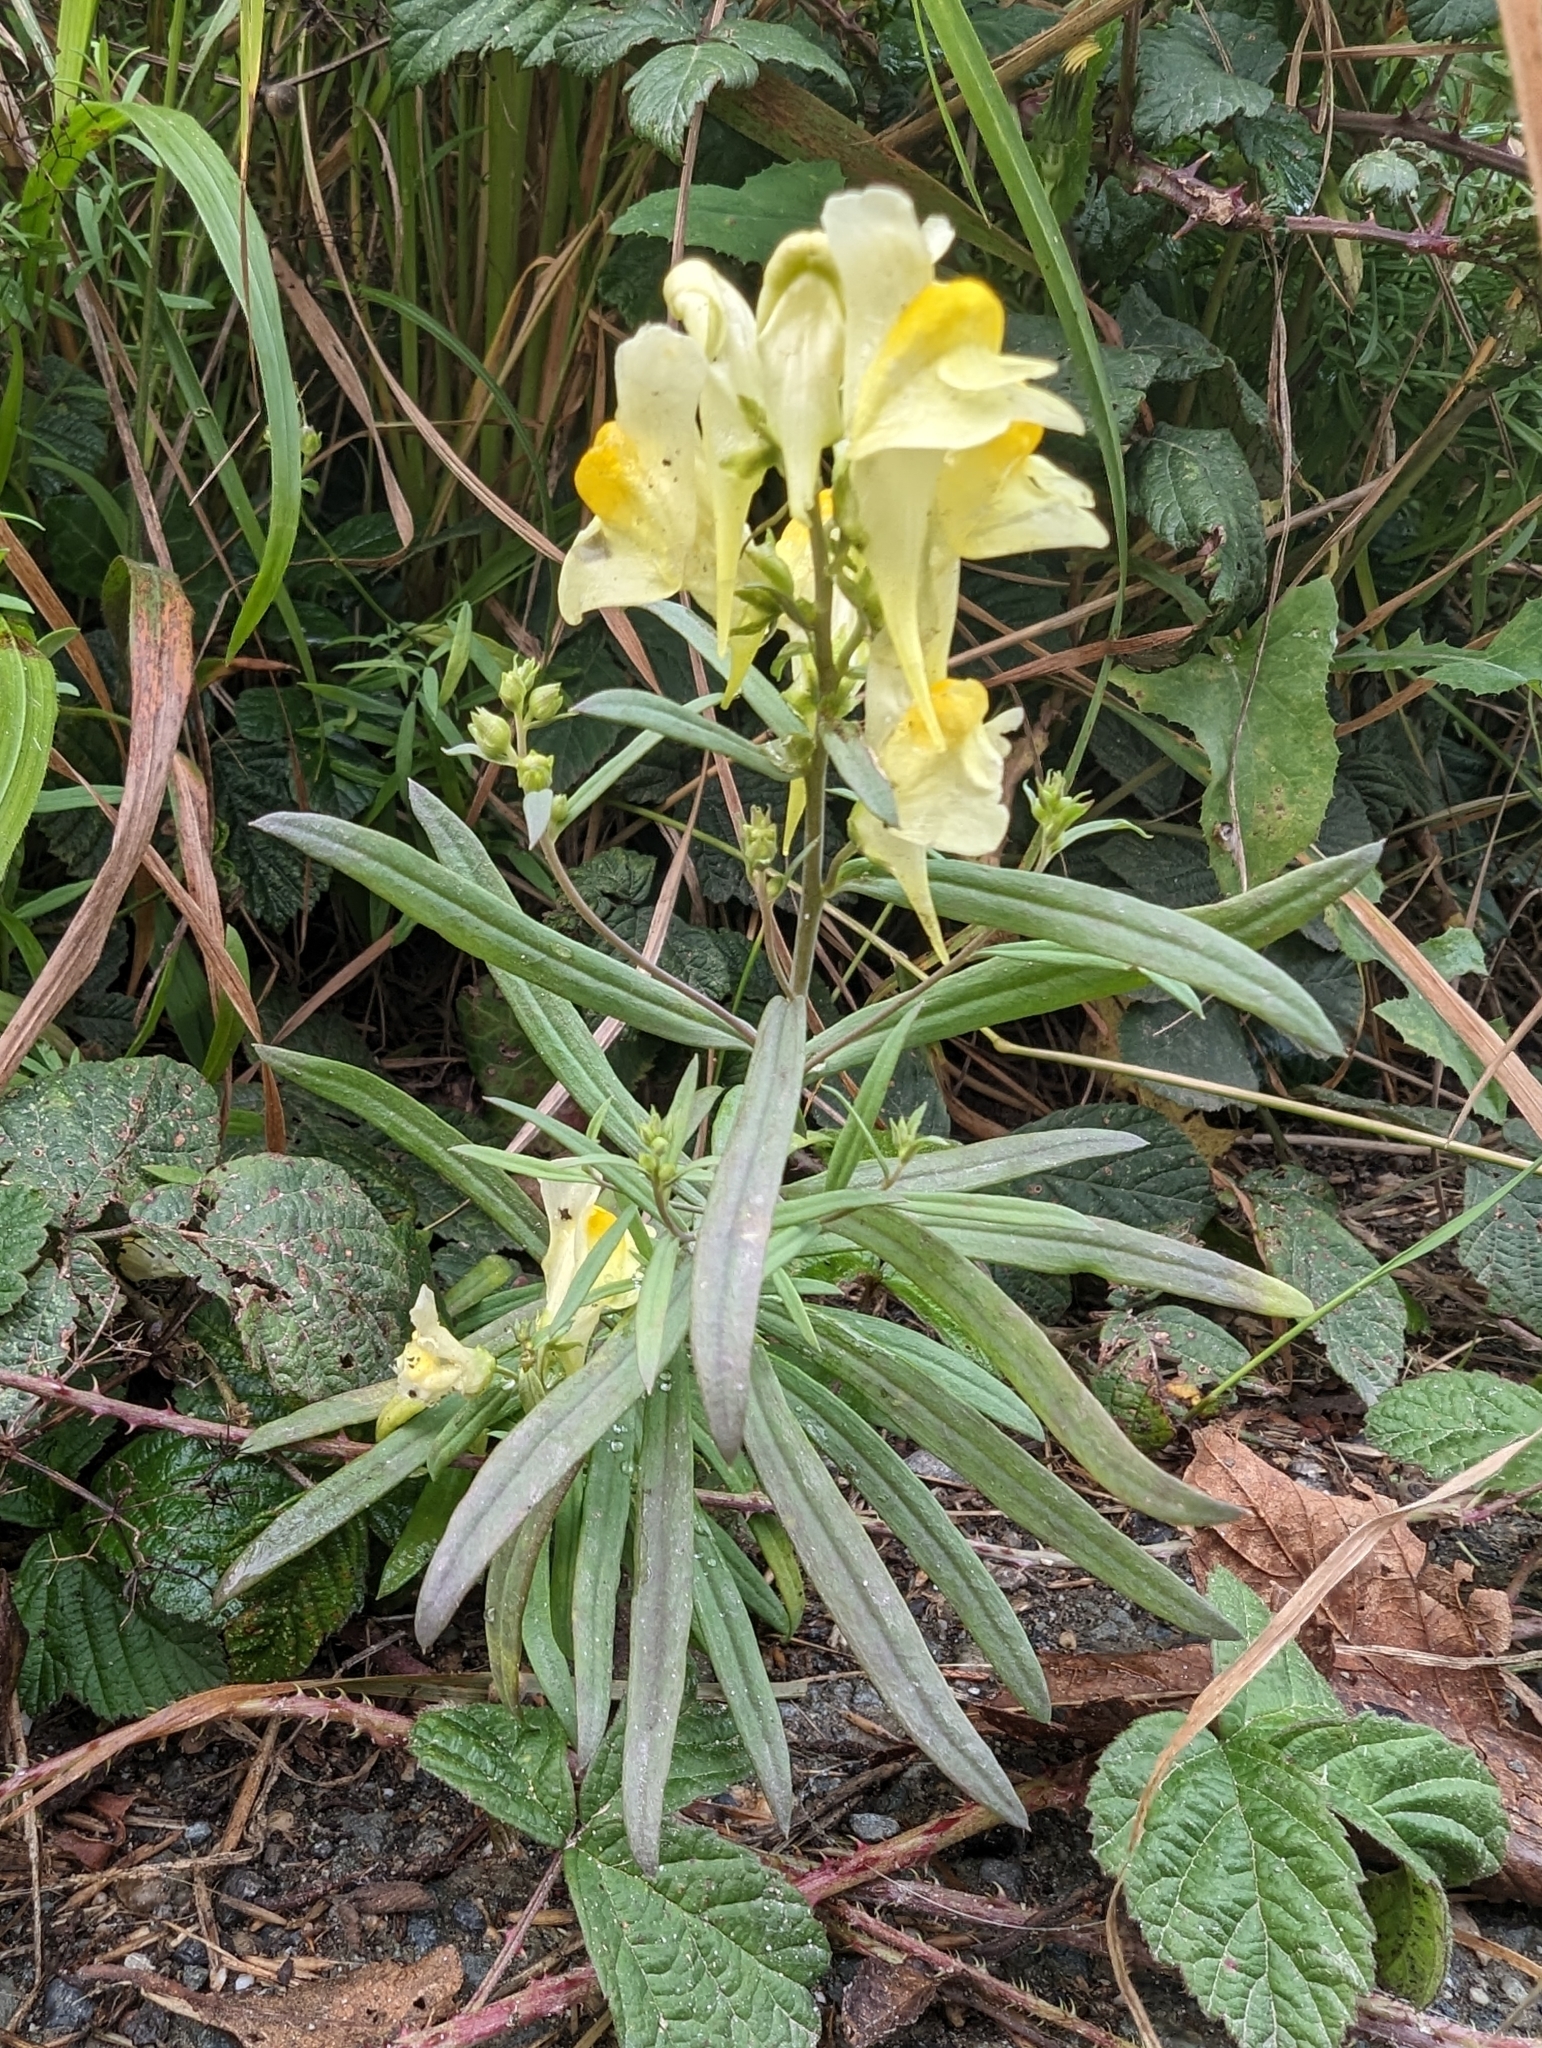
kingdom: Plantae
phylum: Tracheophyta
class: Magnoliopsida
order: Lamiales
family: Plantaginaceae
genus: Linaria
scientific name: Linaria vulgaris
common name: Butter and eggs
